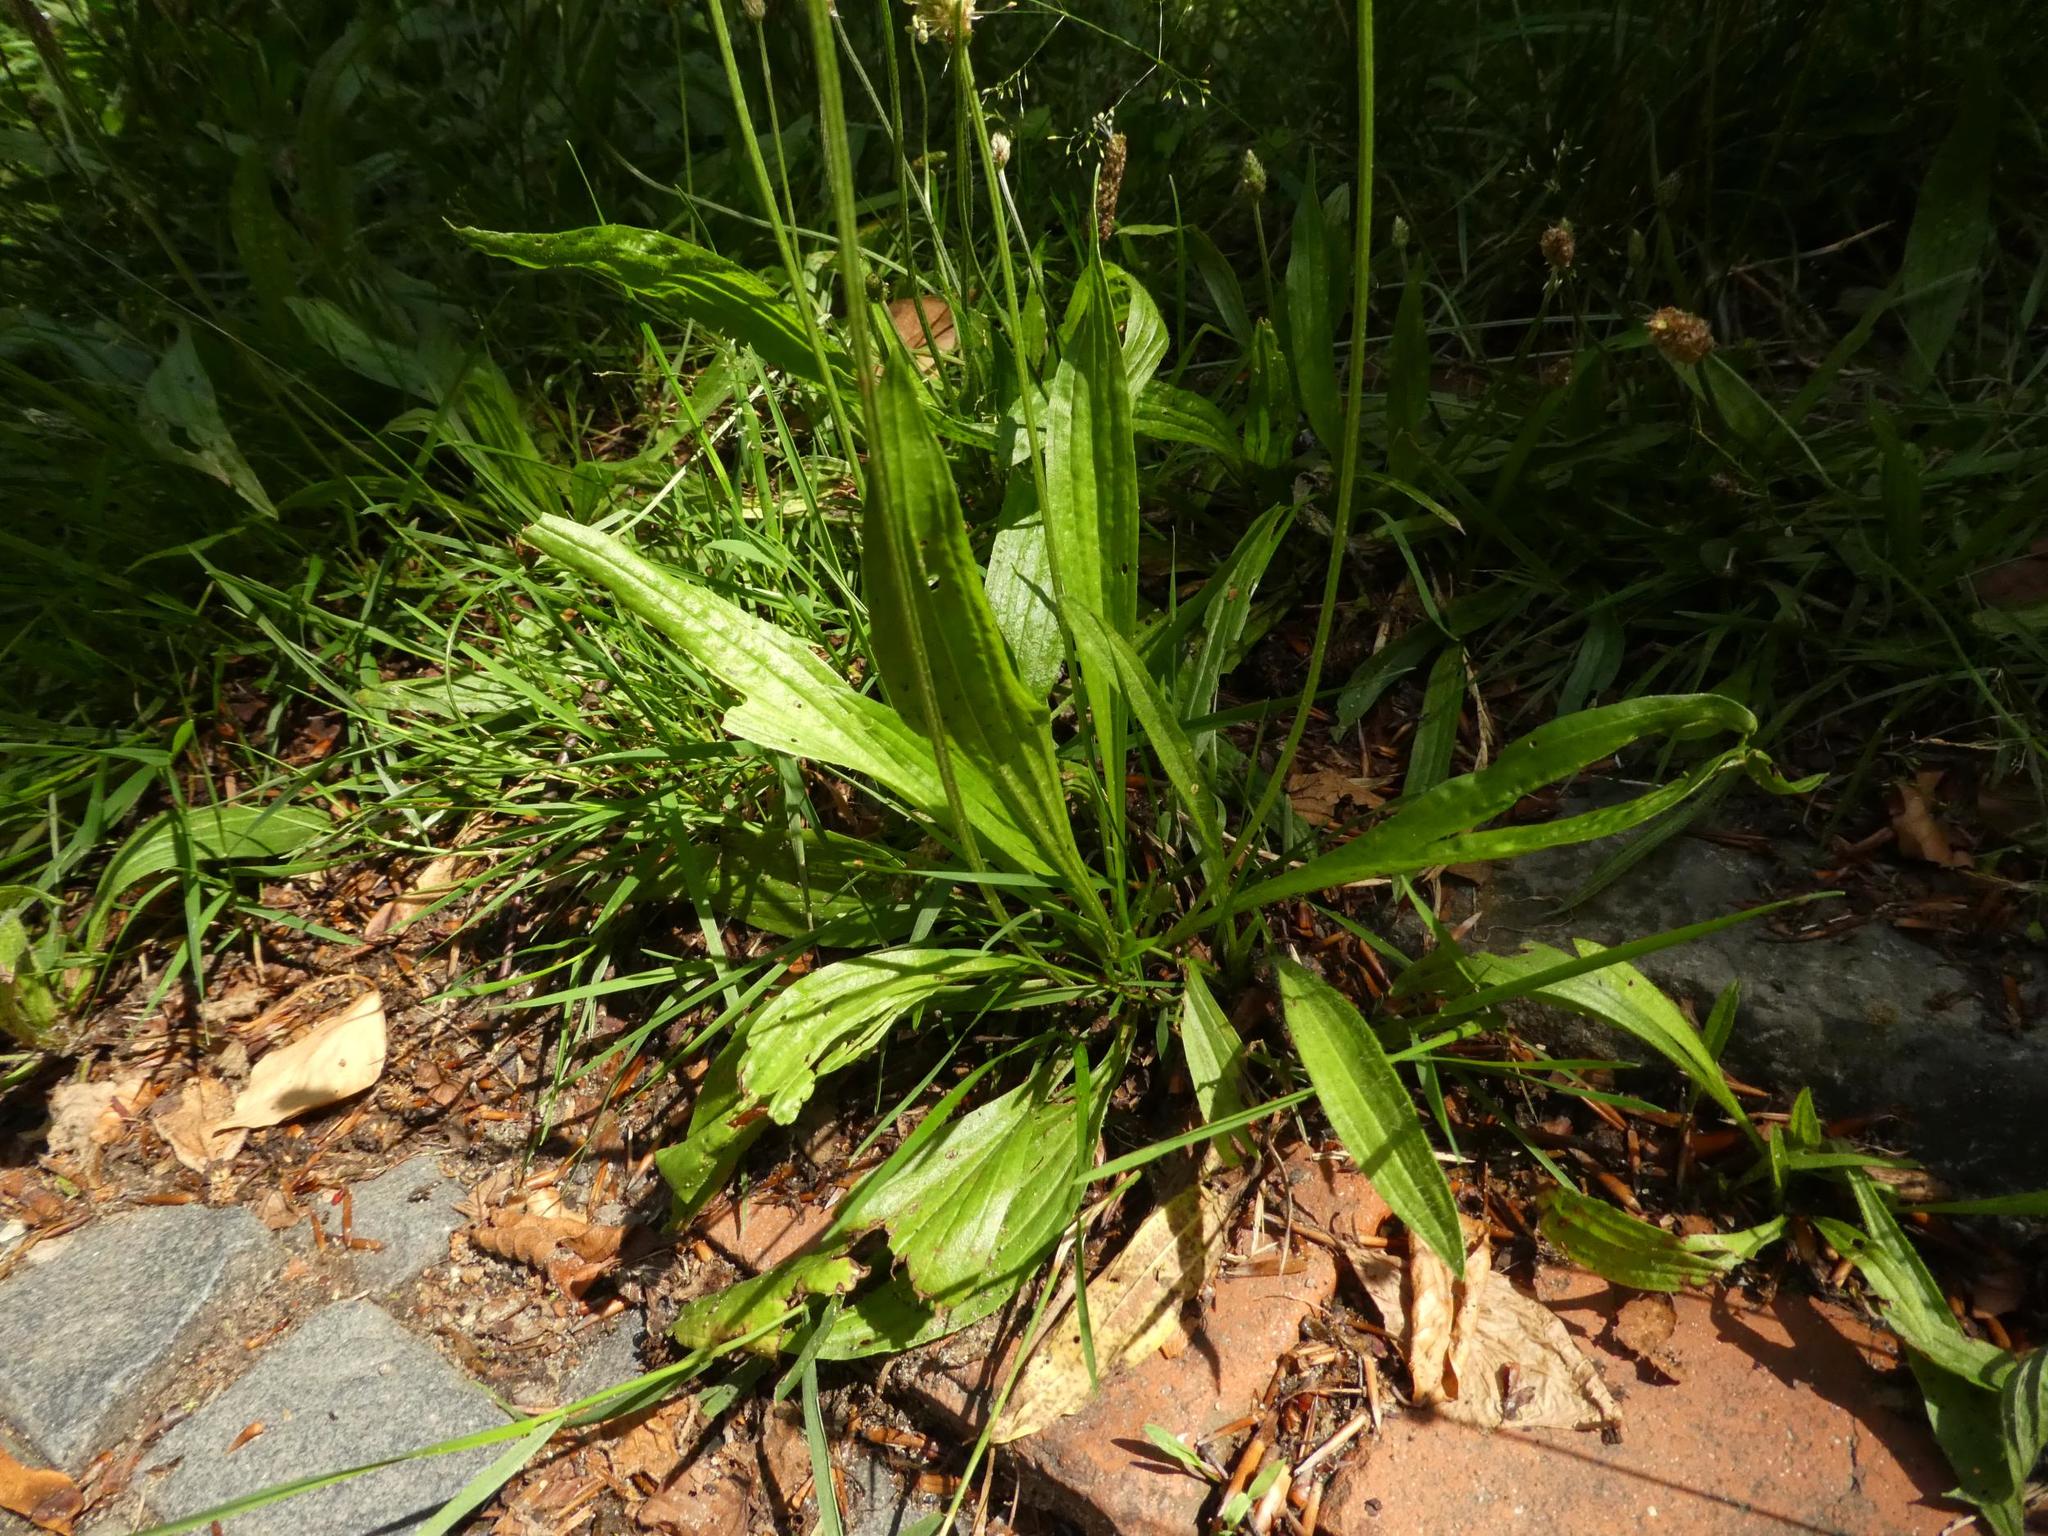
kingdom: Plantae
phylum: Tracheophyta
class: Magnoliopsida
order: Lamiales
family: Plantaginaceae
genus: Plantago
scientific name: Plantago lanceolata
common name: Ribwort plantain
